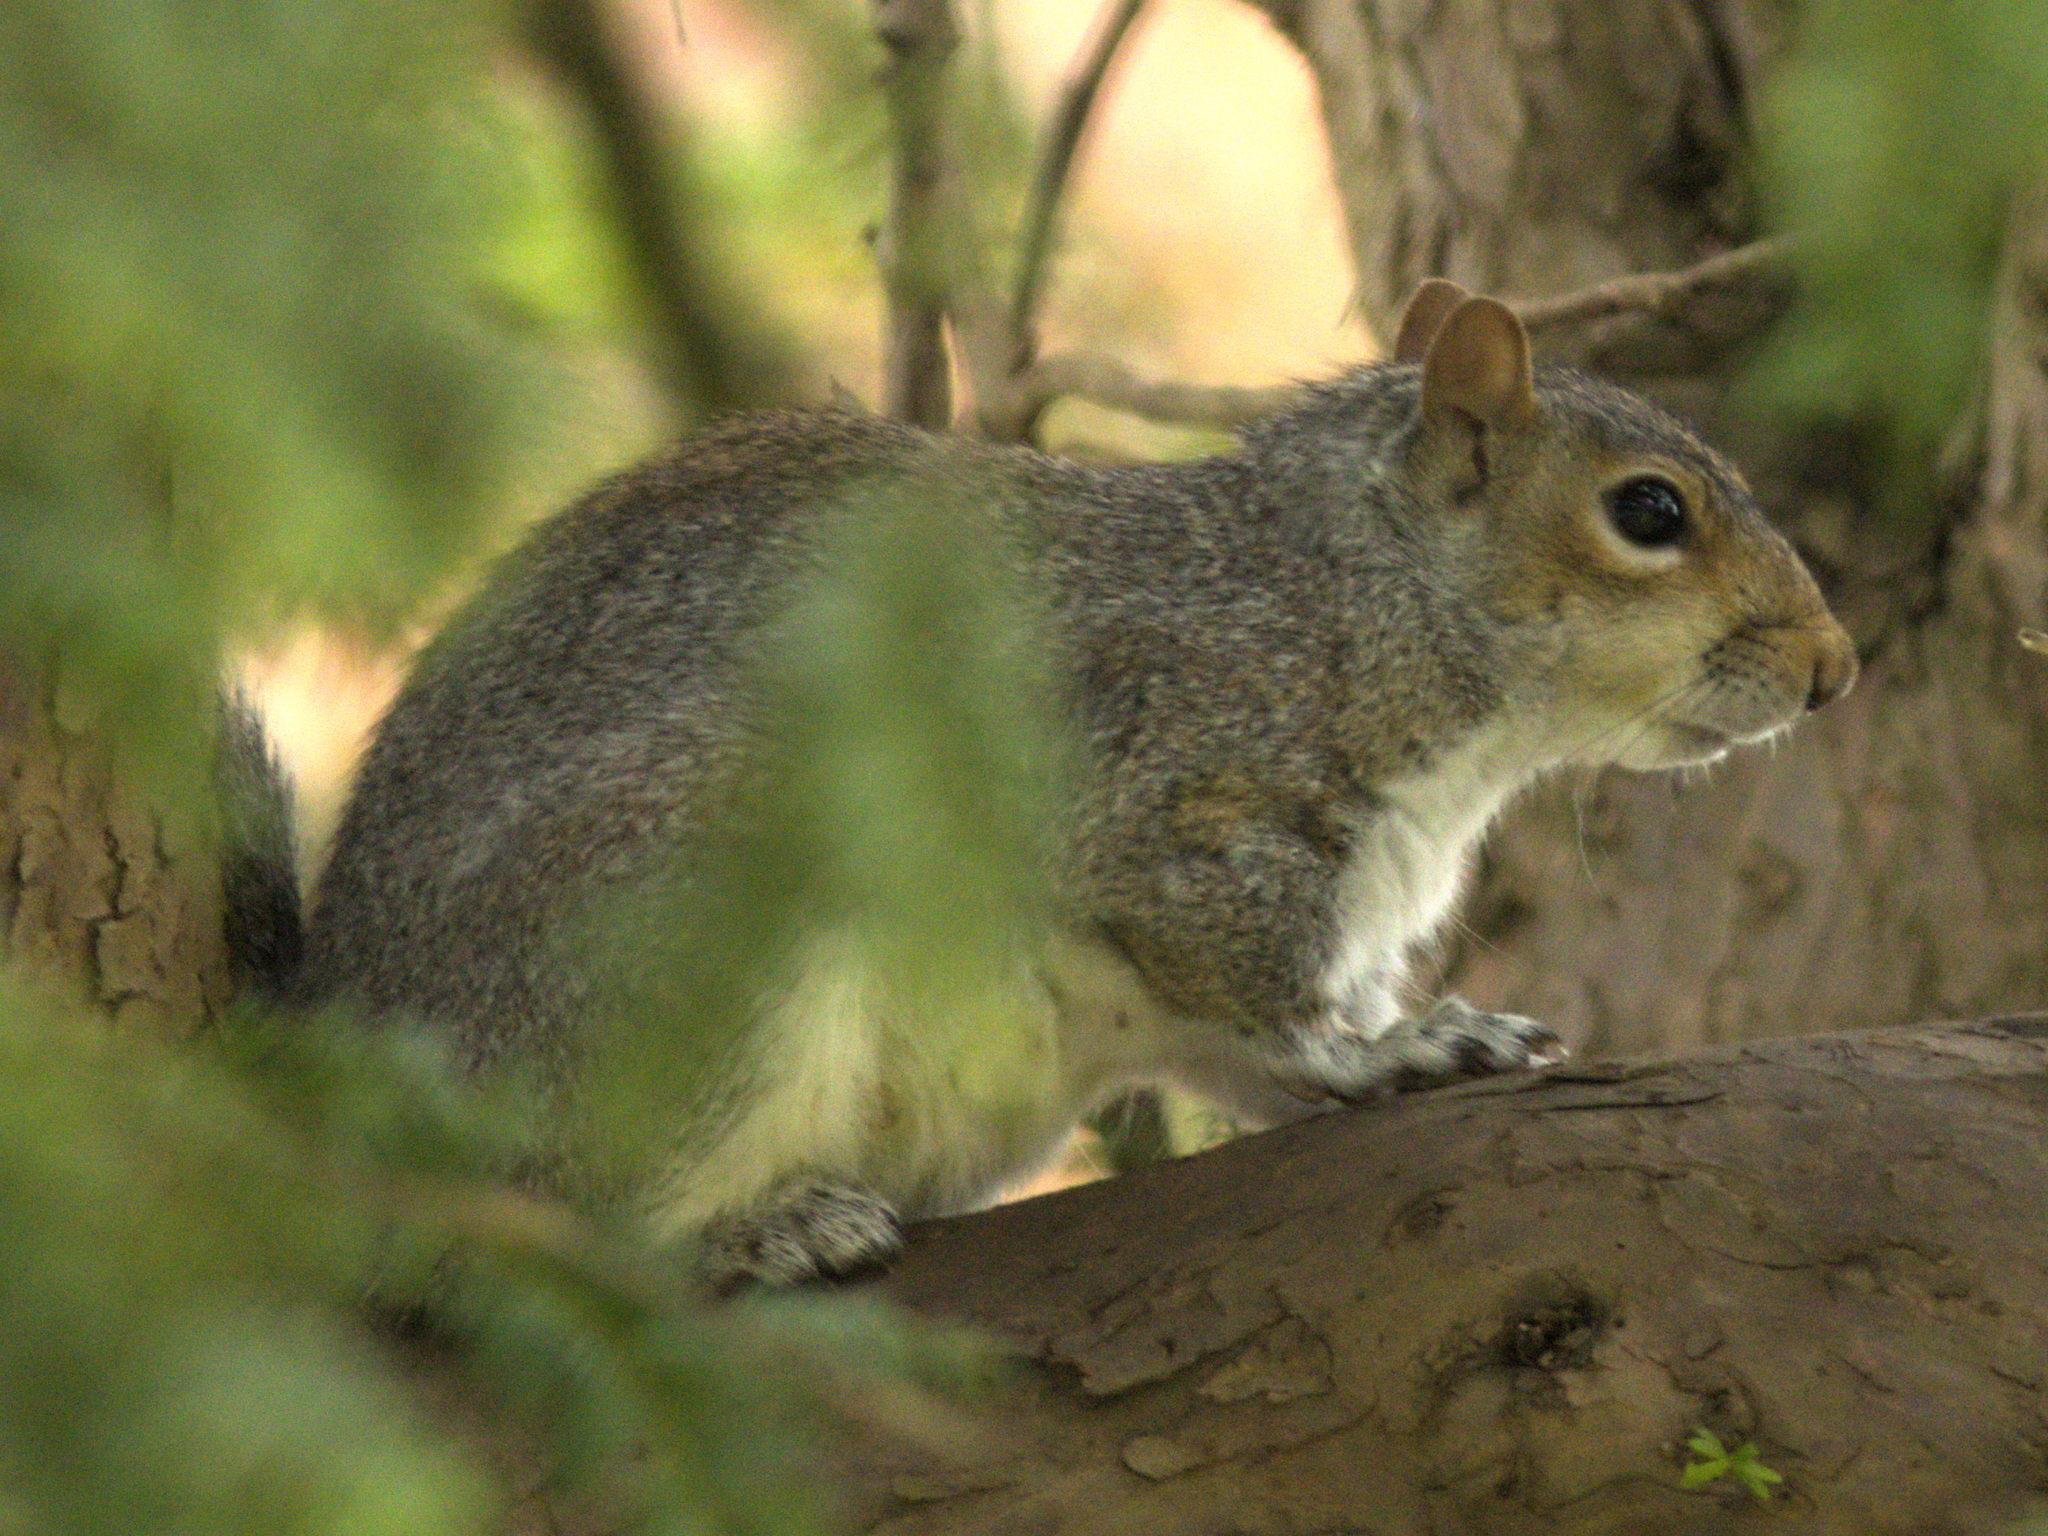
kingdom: Animalia
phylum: Chordata
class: Mammalia
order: Rodentia
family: Sciuridae
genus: Sciurus
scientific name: Sciurus carolinensis
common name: Eastern gray squirrel
